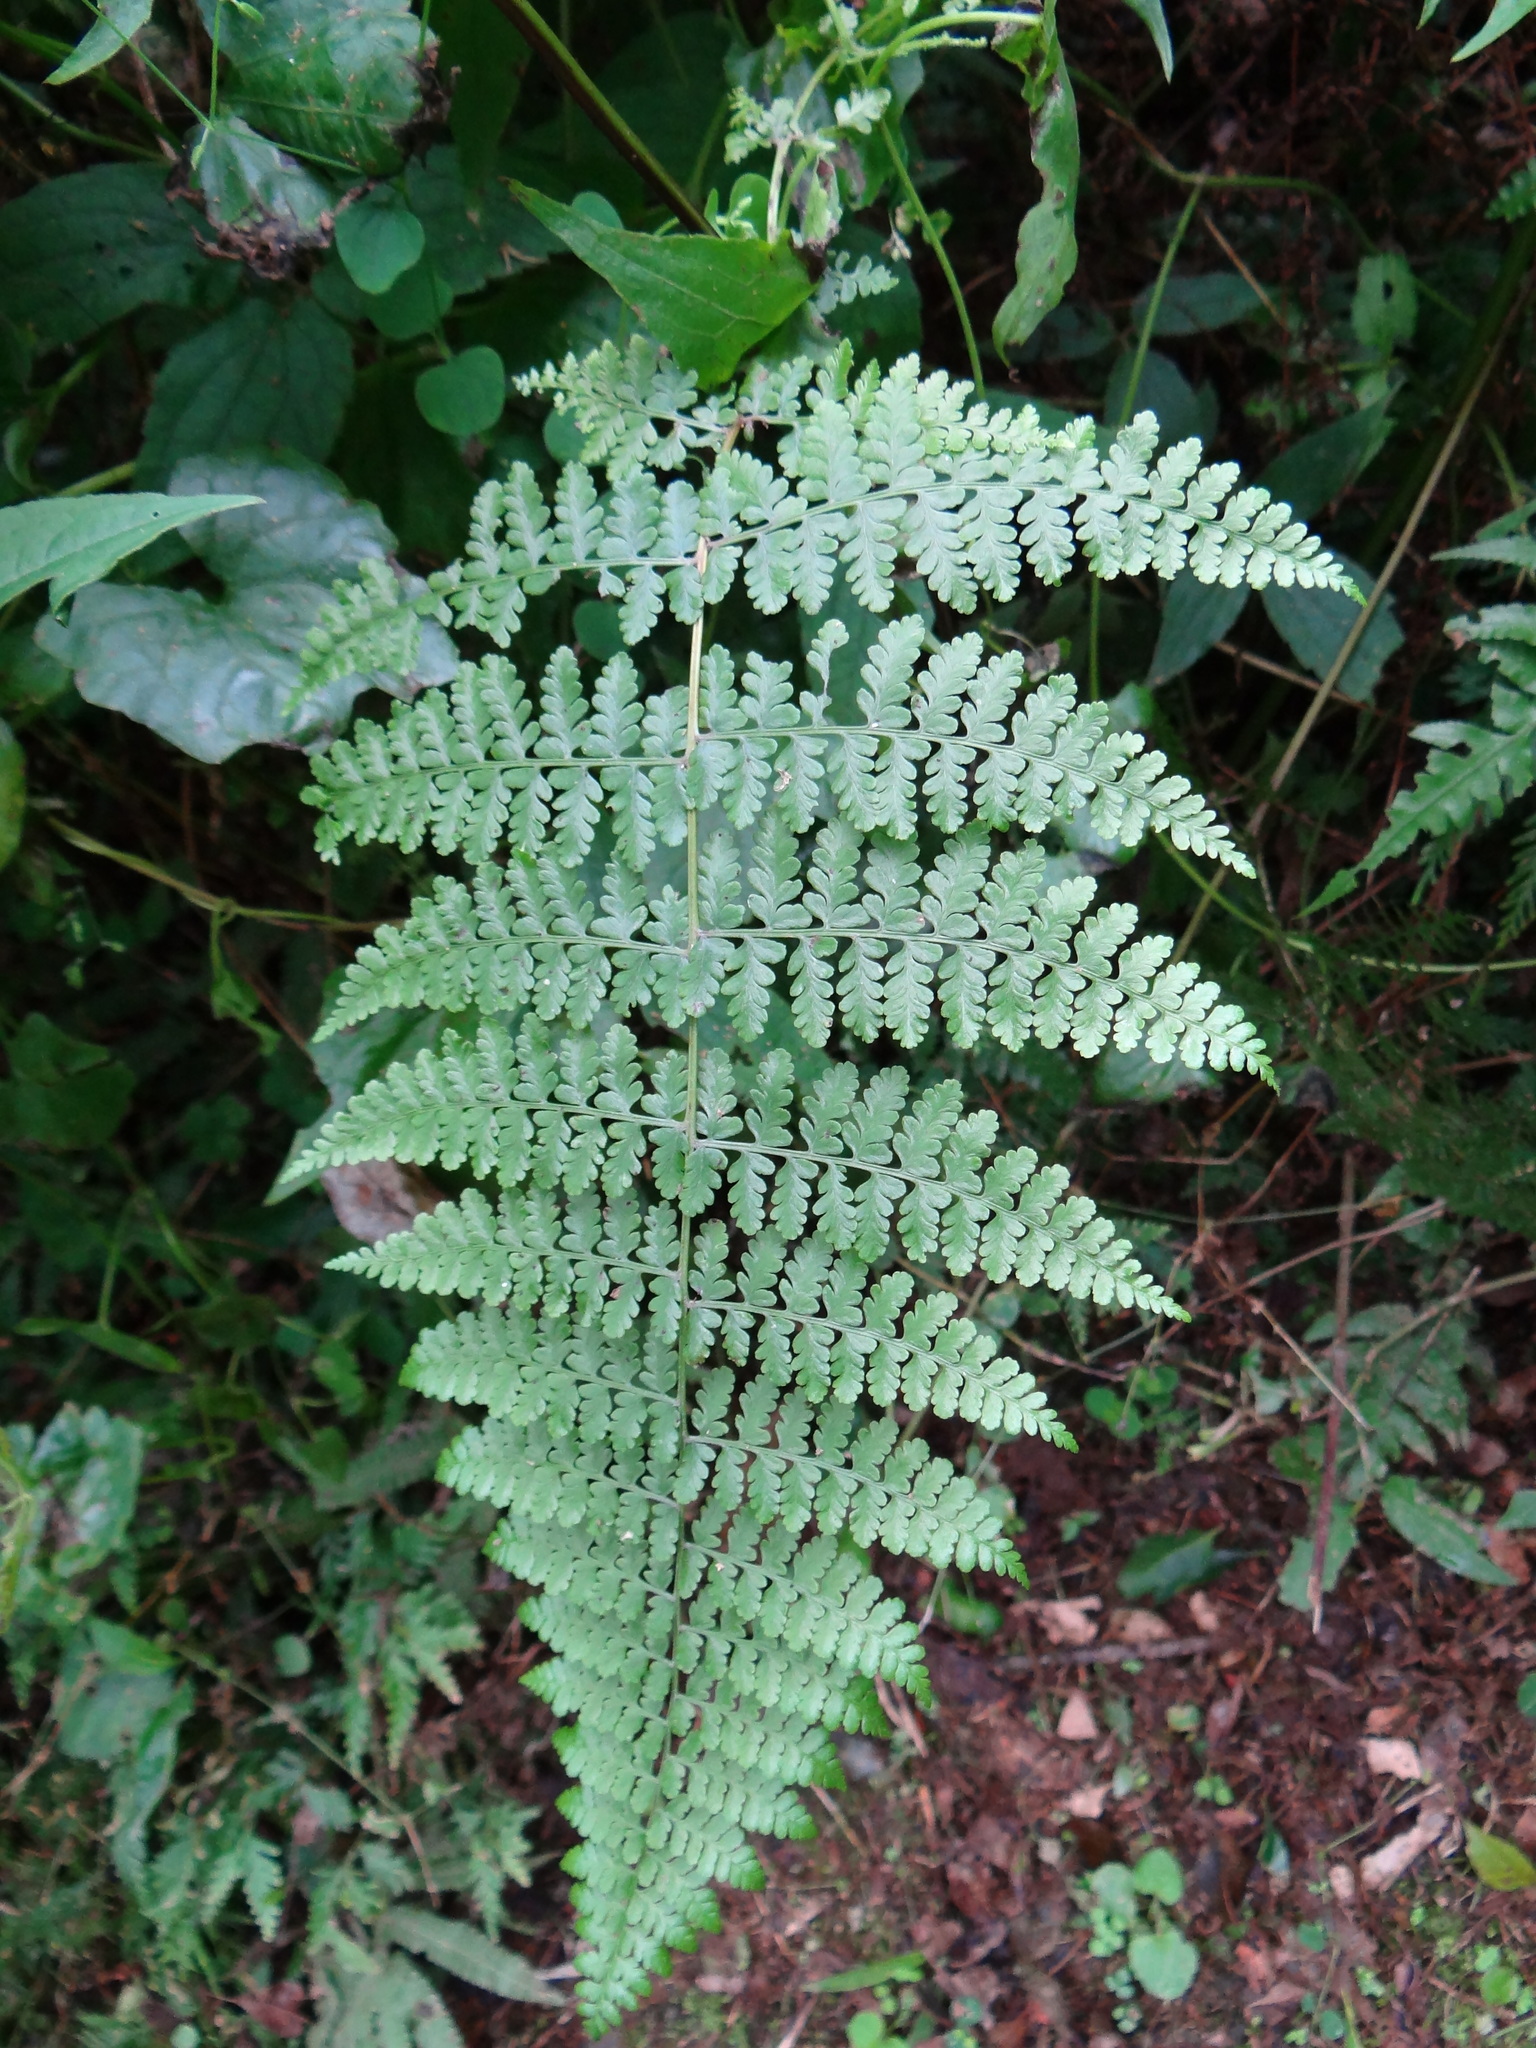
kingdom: Plantae
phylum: Tracheophyta
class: Polypodiopsida
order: Polypodiales
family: Dennstaedtiaceae
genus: Dennstaedtia
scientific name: Dennstaedtia scandens
